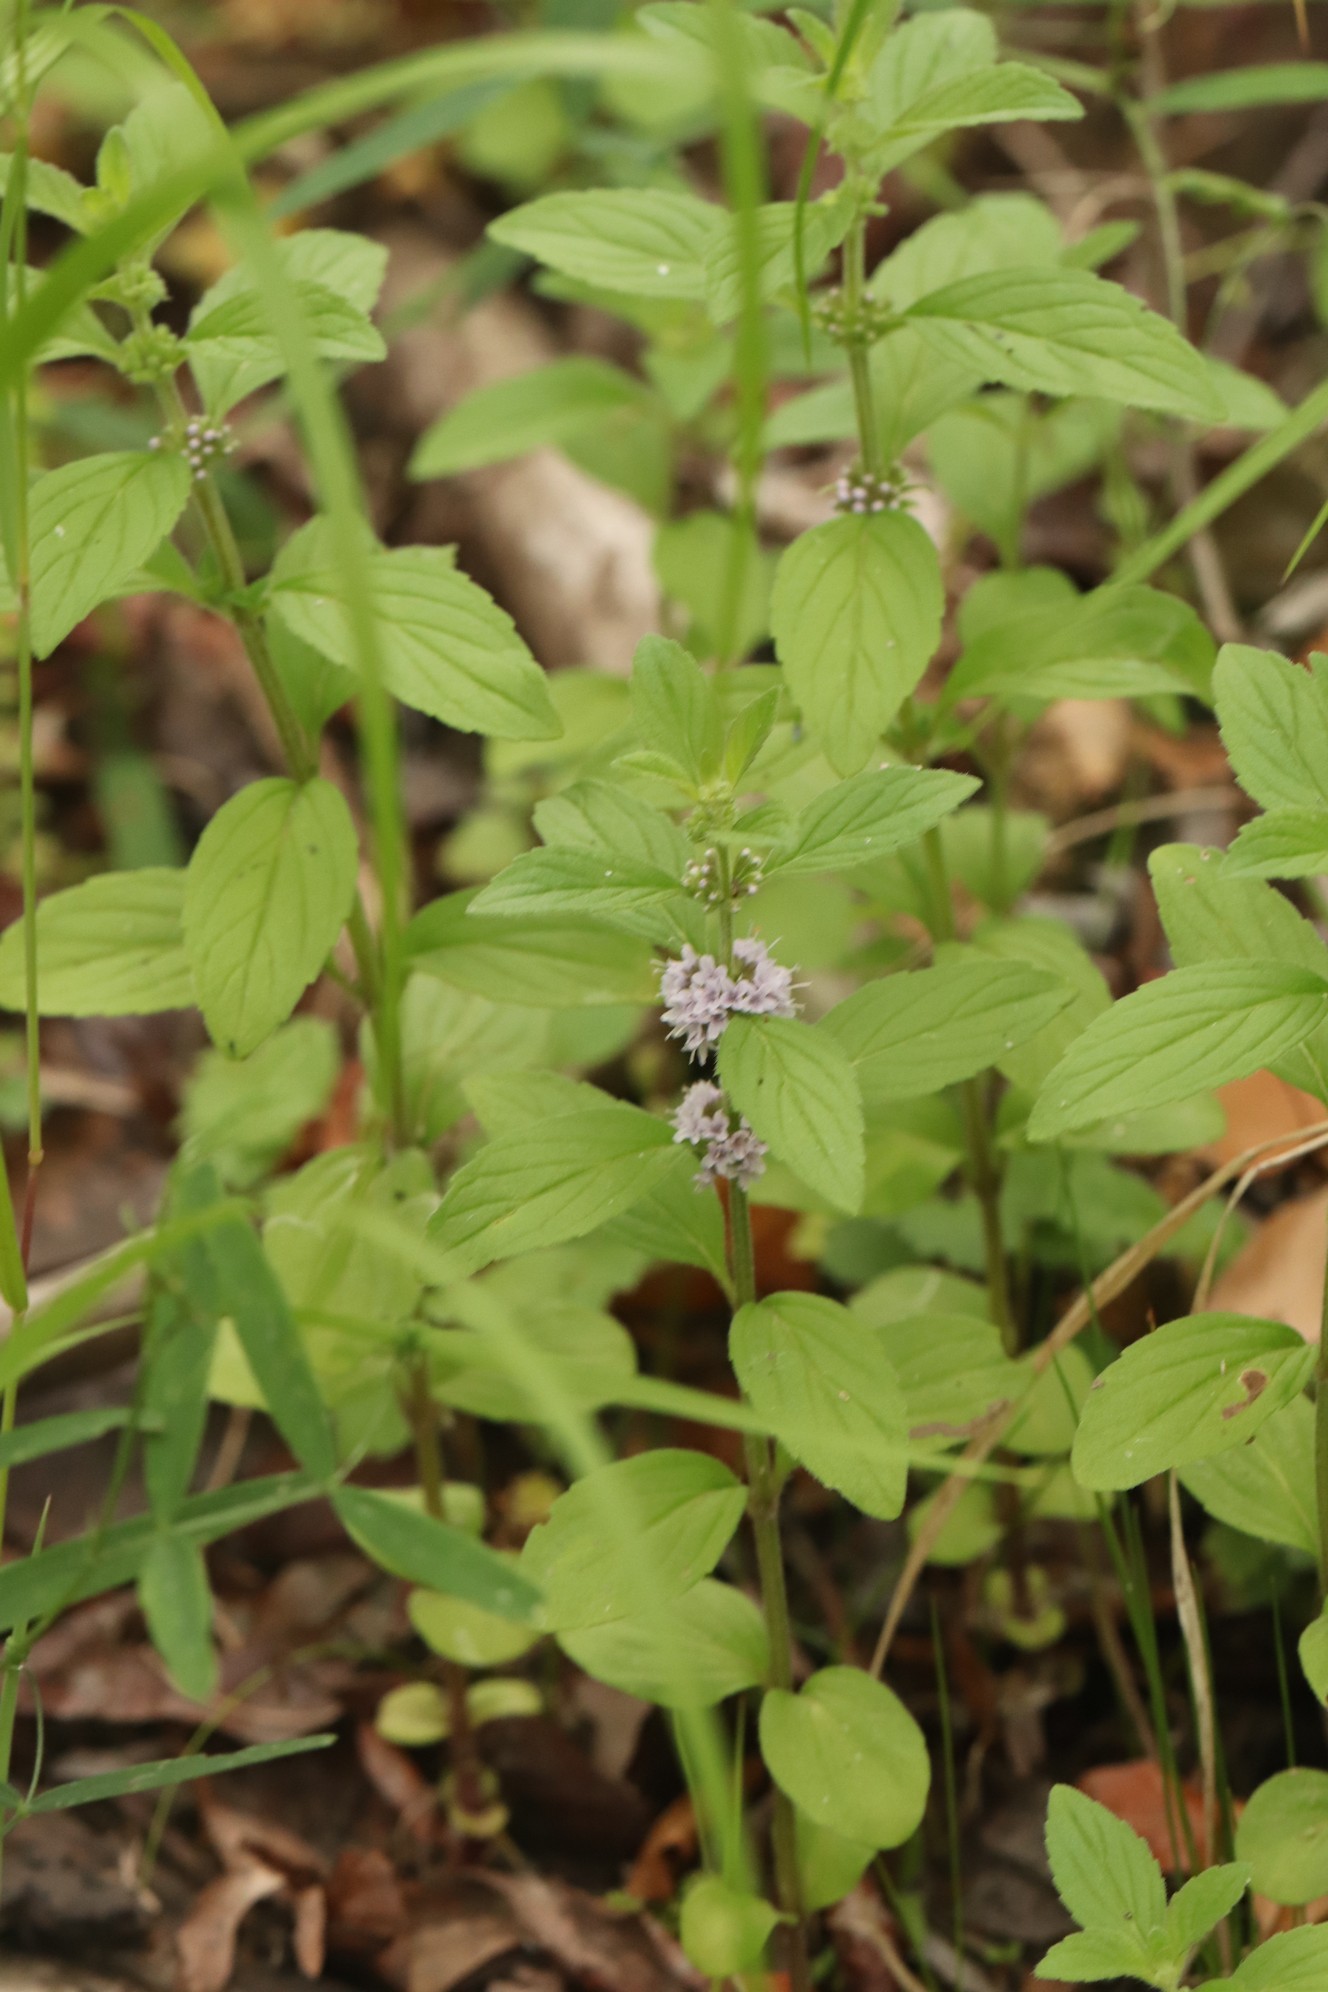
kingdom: Plantae
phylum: Tracheophyta
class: Magnoliopsida
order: Lamiales
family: Lamiaceae
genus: Mentha
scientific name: Mentha arvensis
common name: Corn mint
